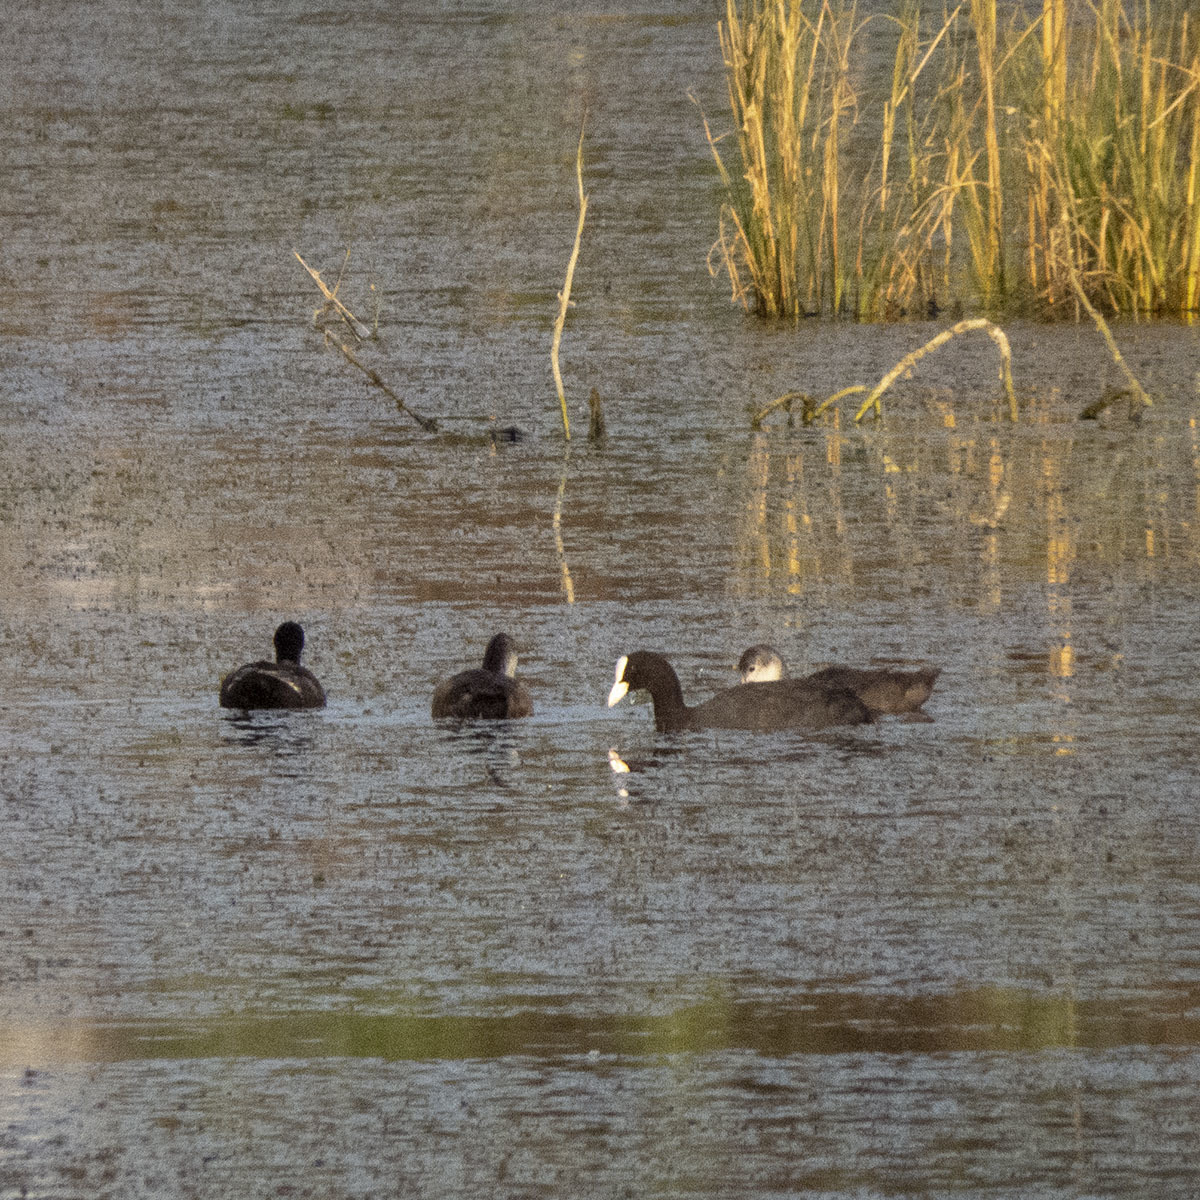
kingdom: Animalia
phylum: Chordata
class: Aves
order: Gruiformes
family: Rallidae
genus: Fulica
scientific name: Fulica atra
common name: Eurasian coot
